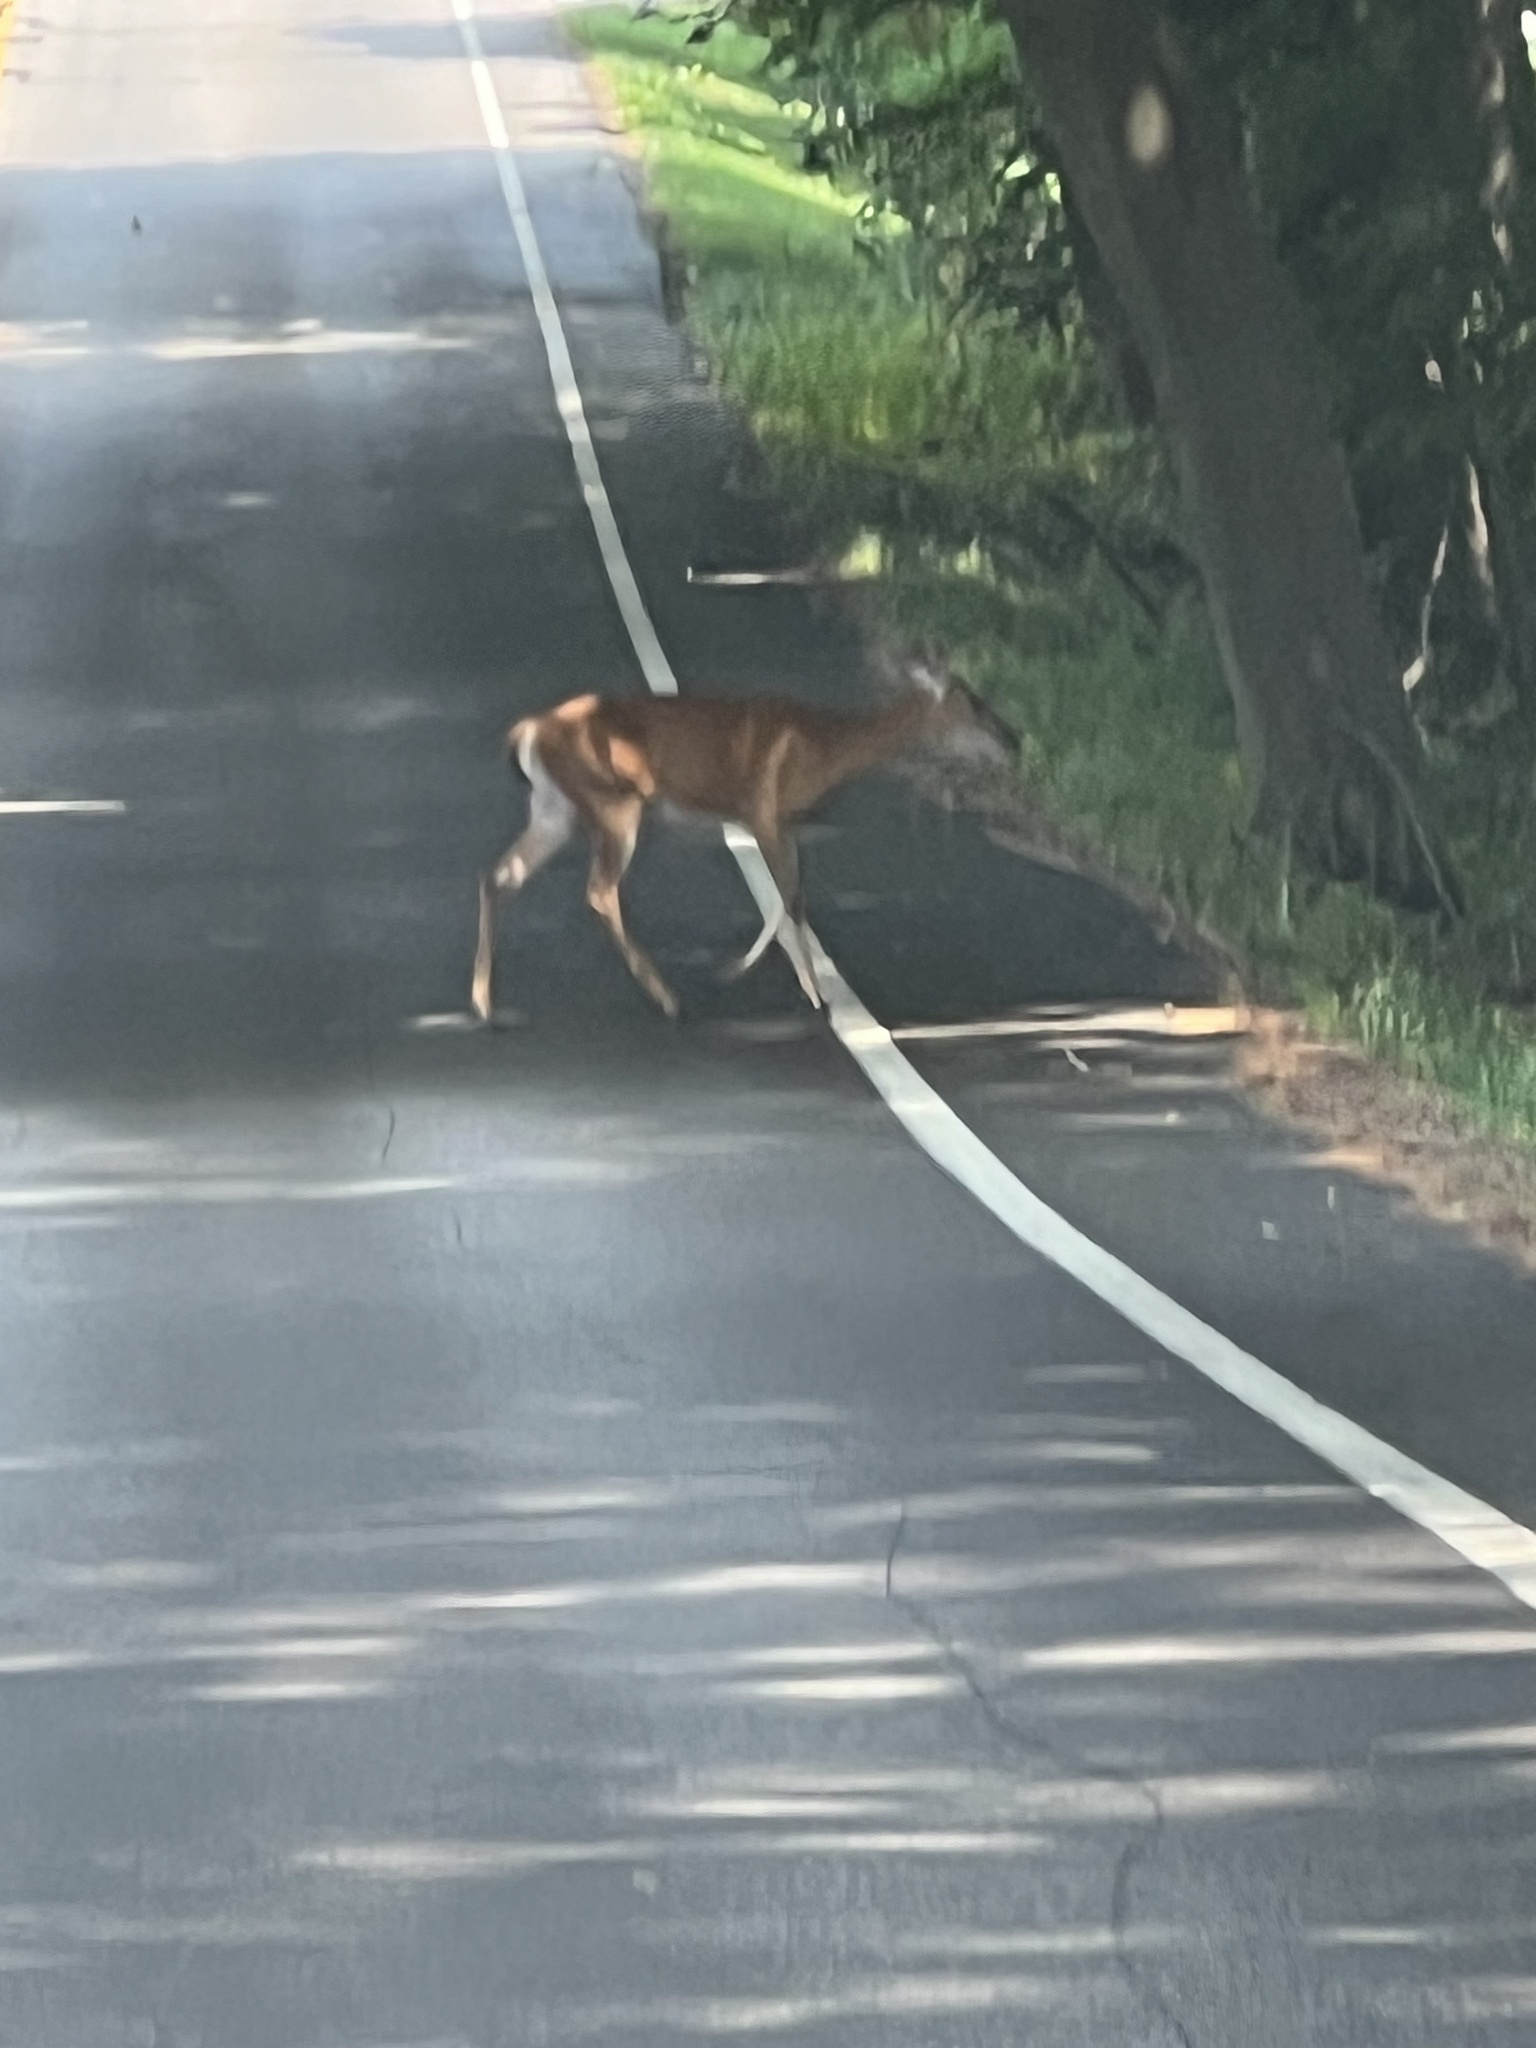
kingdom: Animalia
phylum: Chordata
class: Mammalia
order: Artiodactyla
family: Cervidae
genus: Odocoileus
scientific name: Odocoileus virginianus
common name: White-tailed deer
